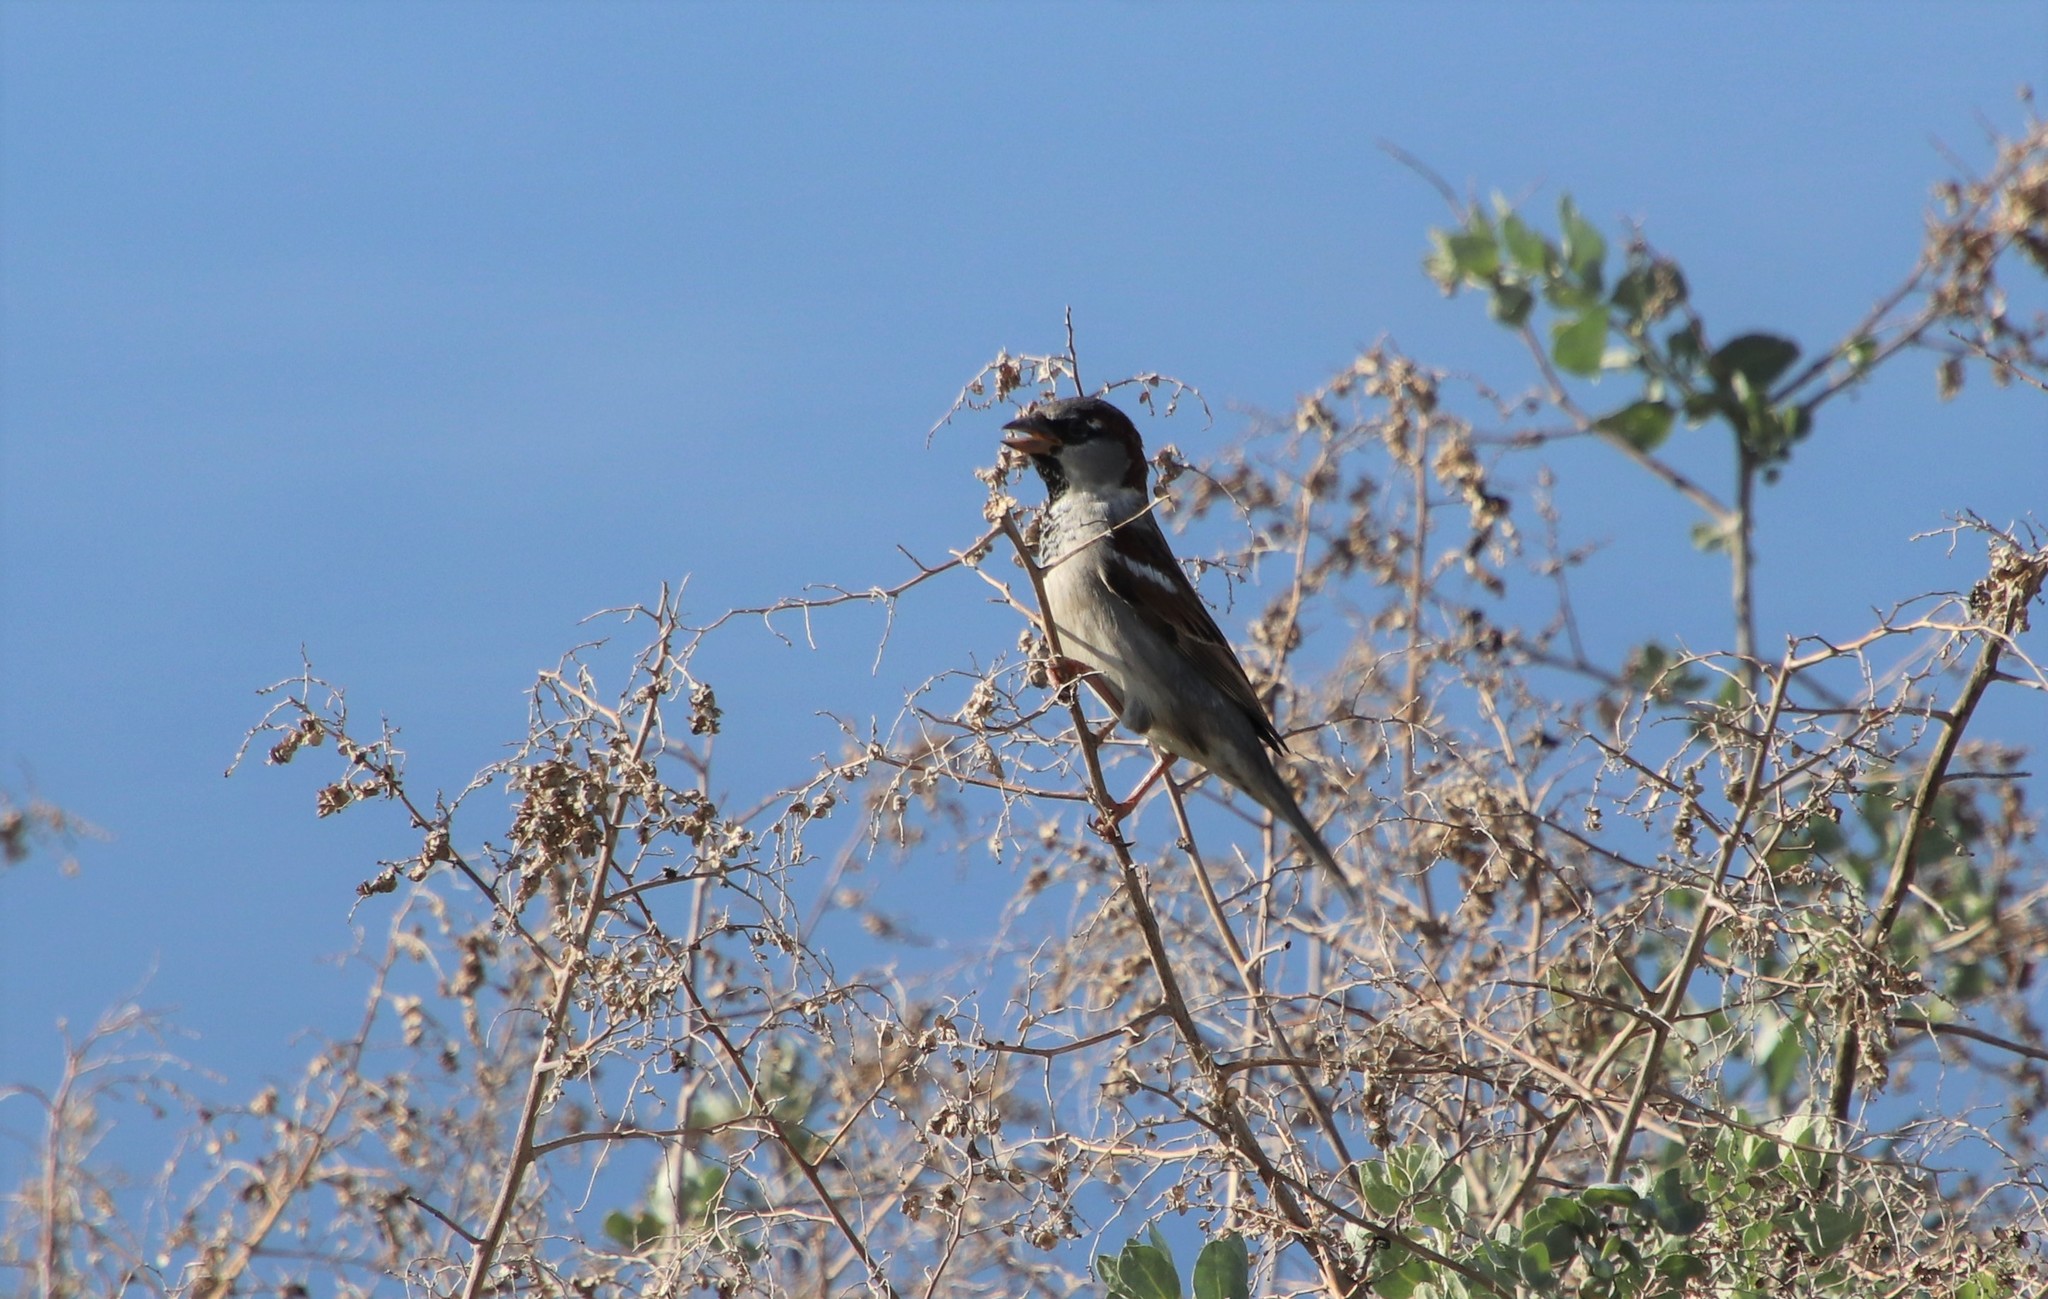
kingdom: Animalia
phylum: Chordata
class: Aves
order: Passeriformes
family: Passeridae
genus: Passer
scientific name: Passer domesticus
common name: House sparrow
